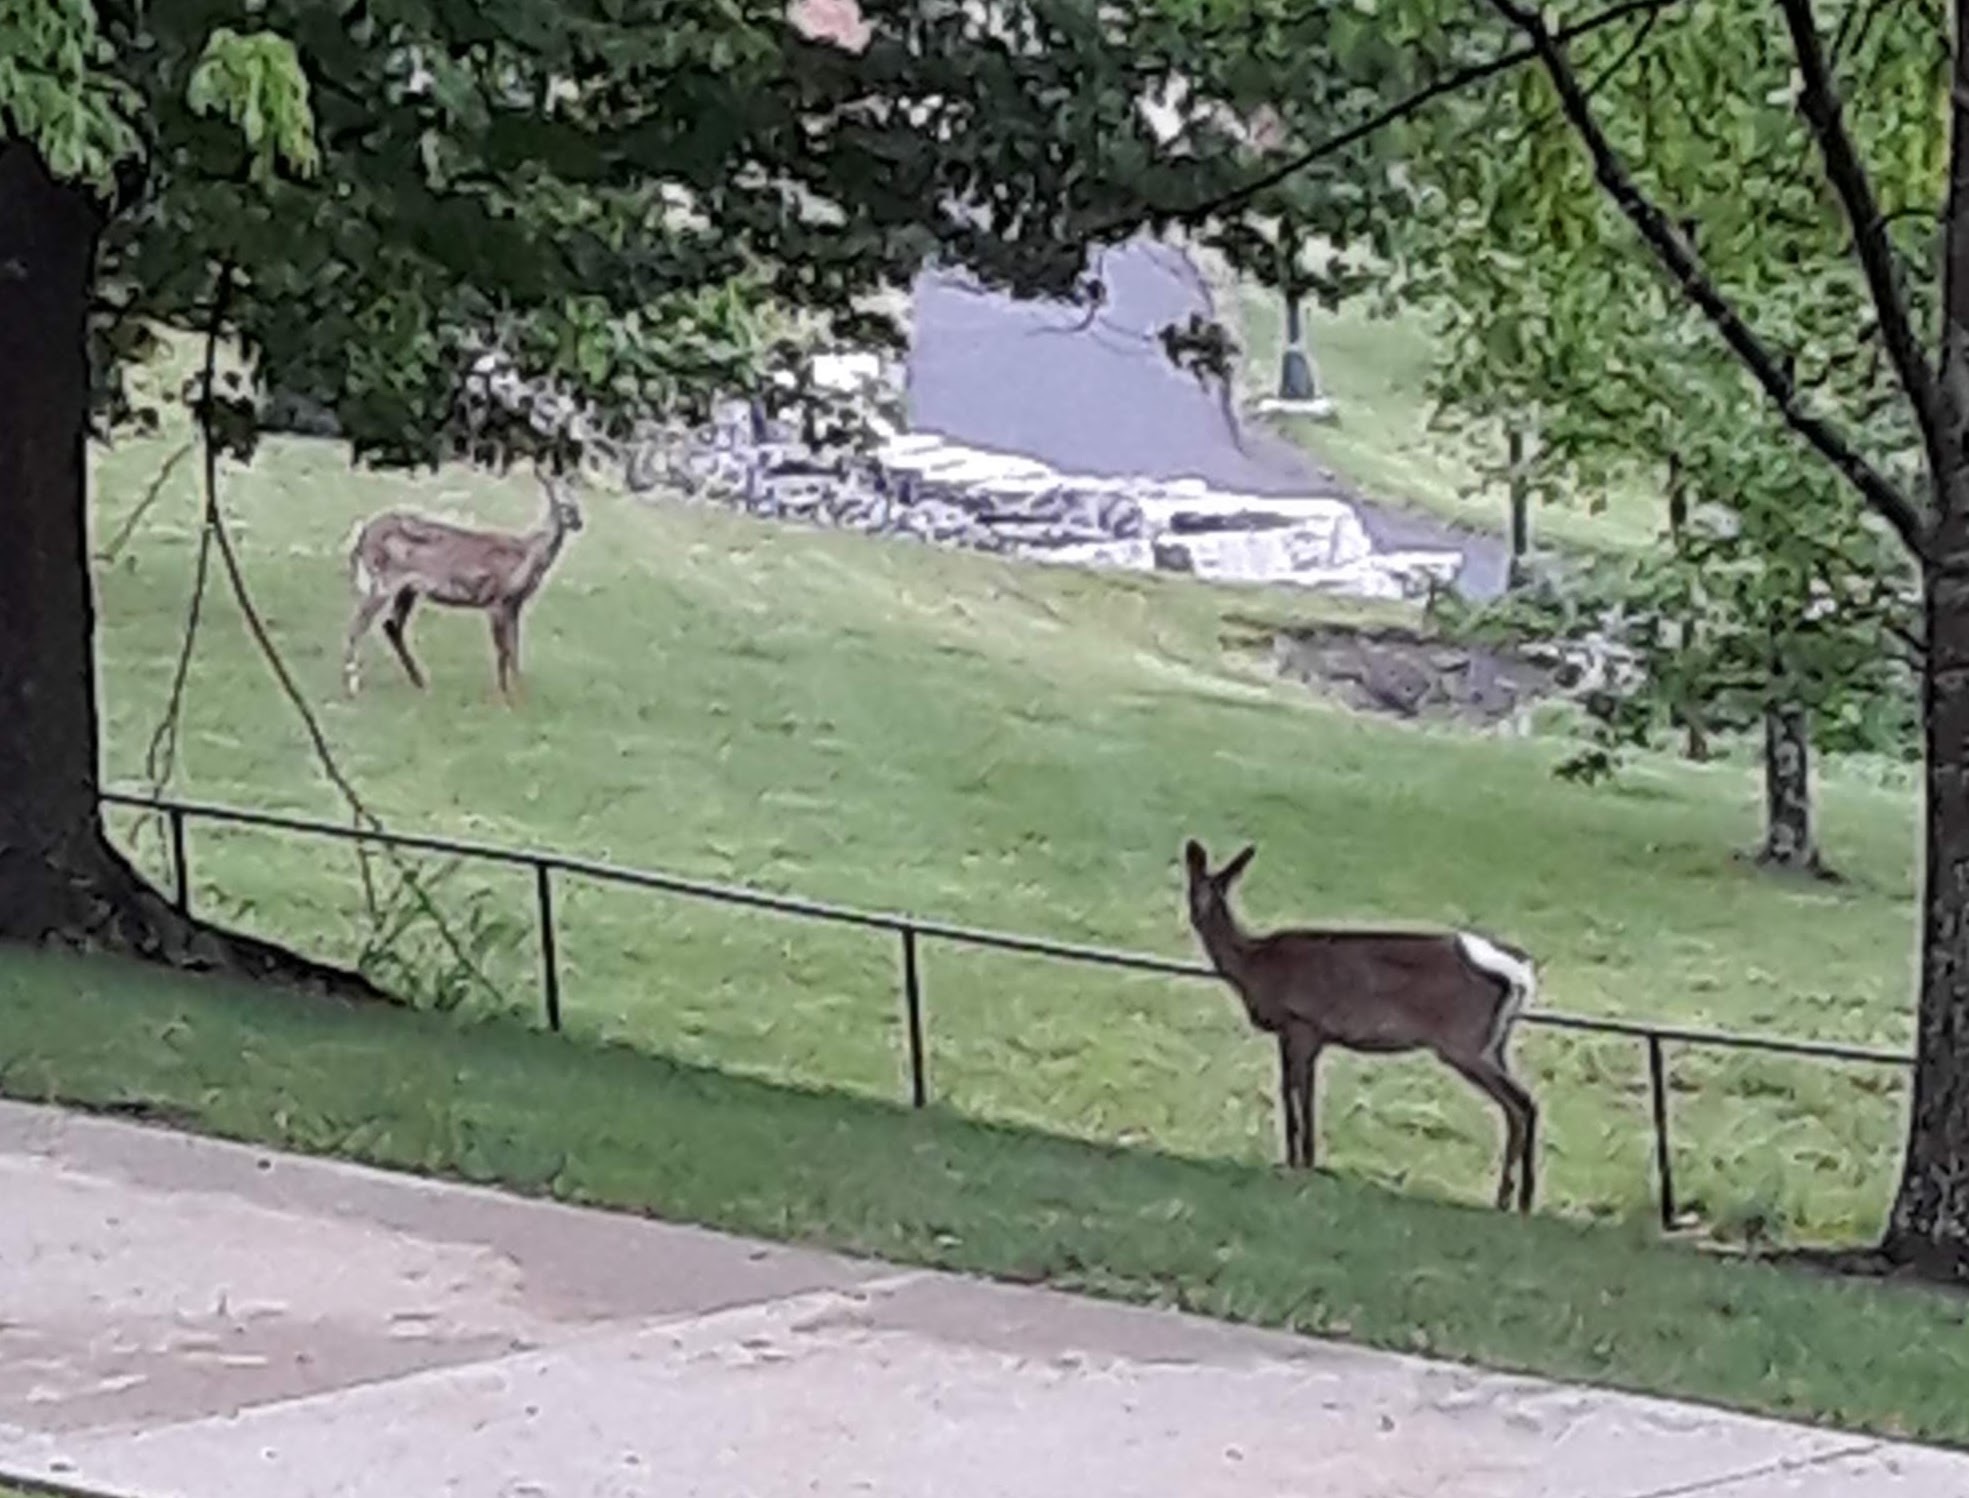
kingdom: Animalia
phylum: Chordata
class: Mammalia
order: Artiodactyla
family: Cervidae
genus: Odocoileus
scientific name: Odocoileus virginianus
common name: White-tailed deer
